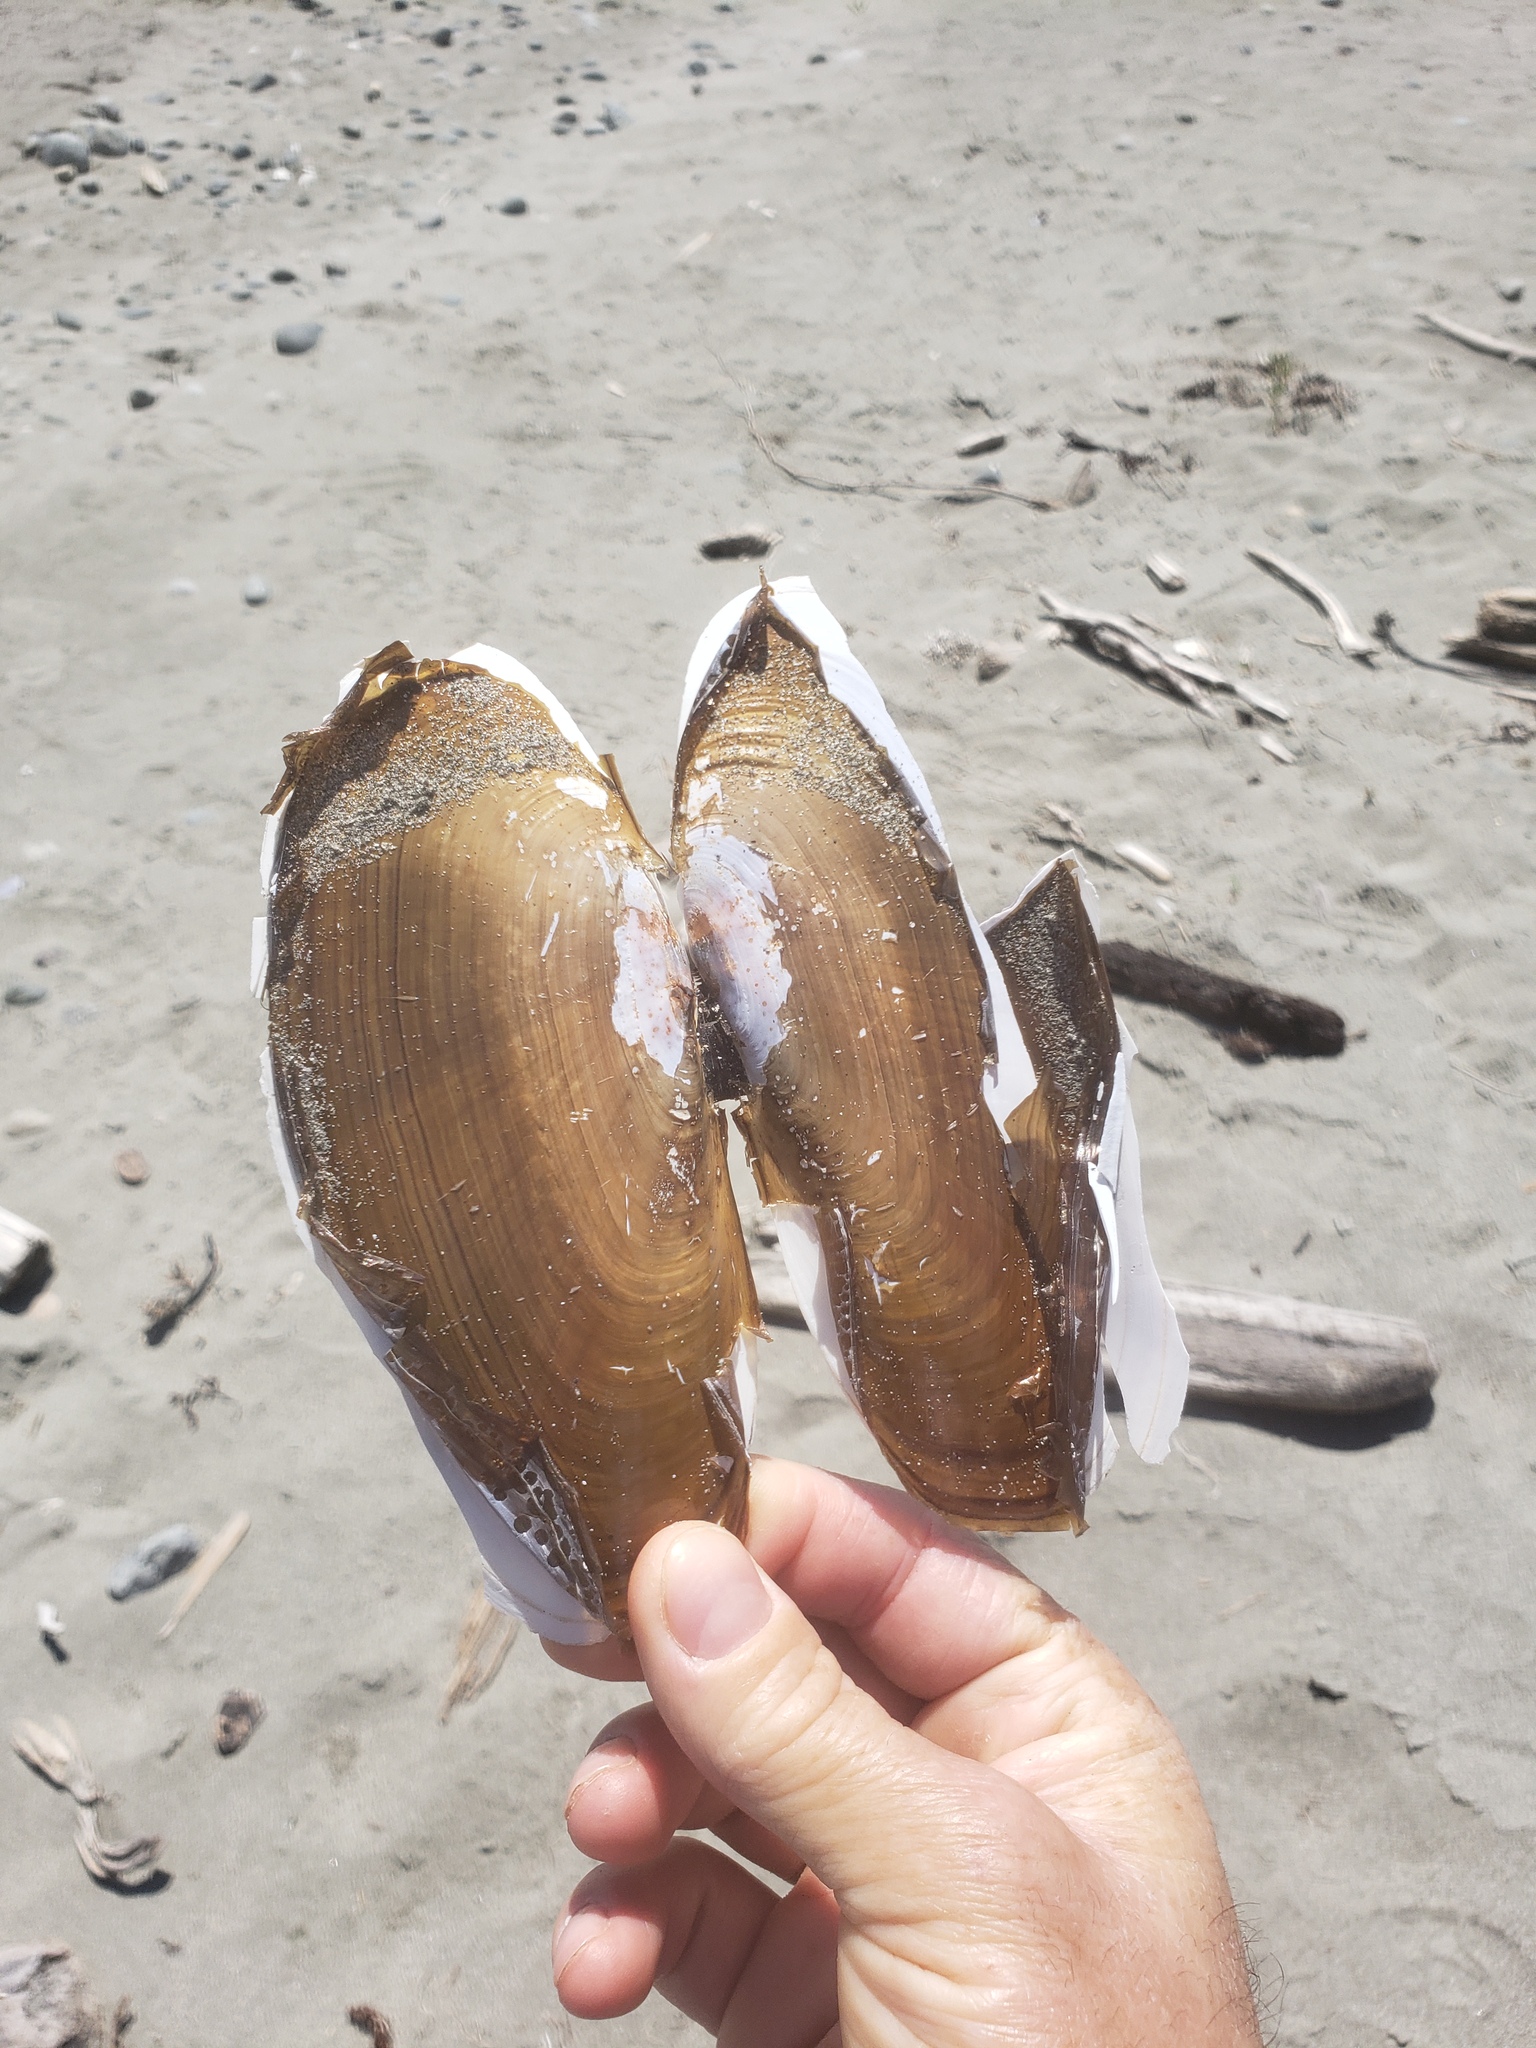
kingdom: Animalia
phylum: Mollusca
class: Bivalvia
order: Adapedonta
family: Pharidae
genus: Siliqua
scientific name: Siliqua patula
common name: Pacific razor clam
